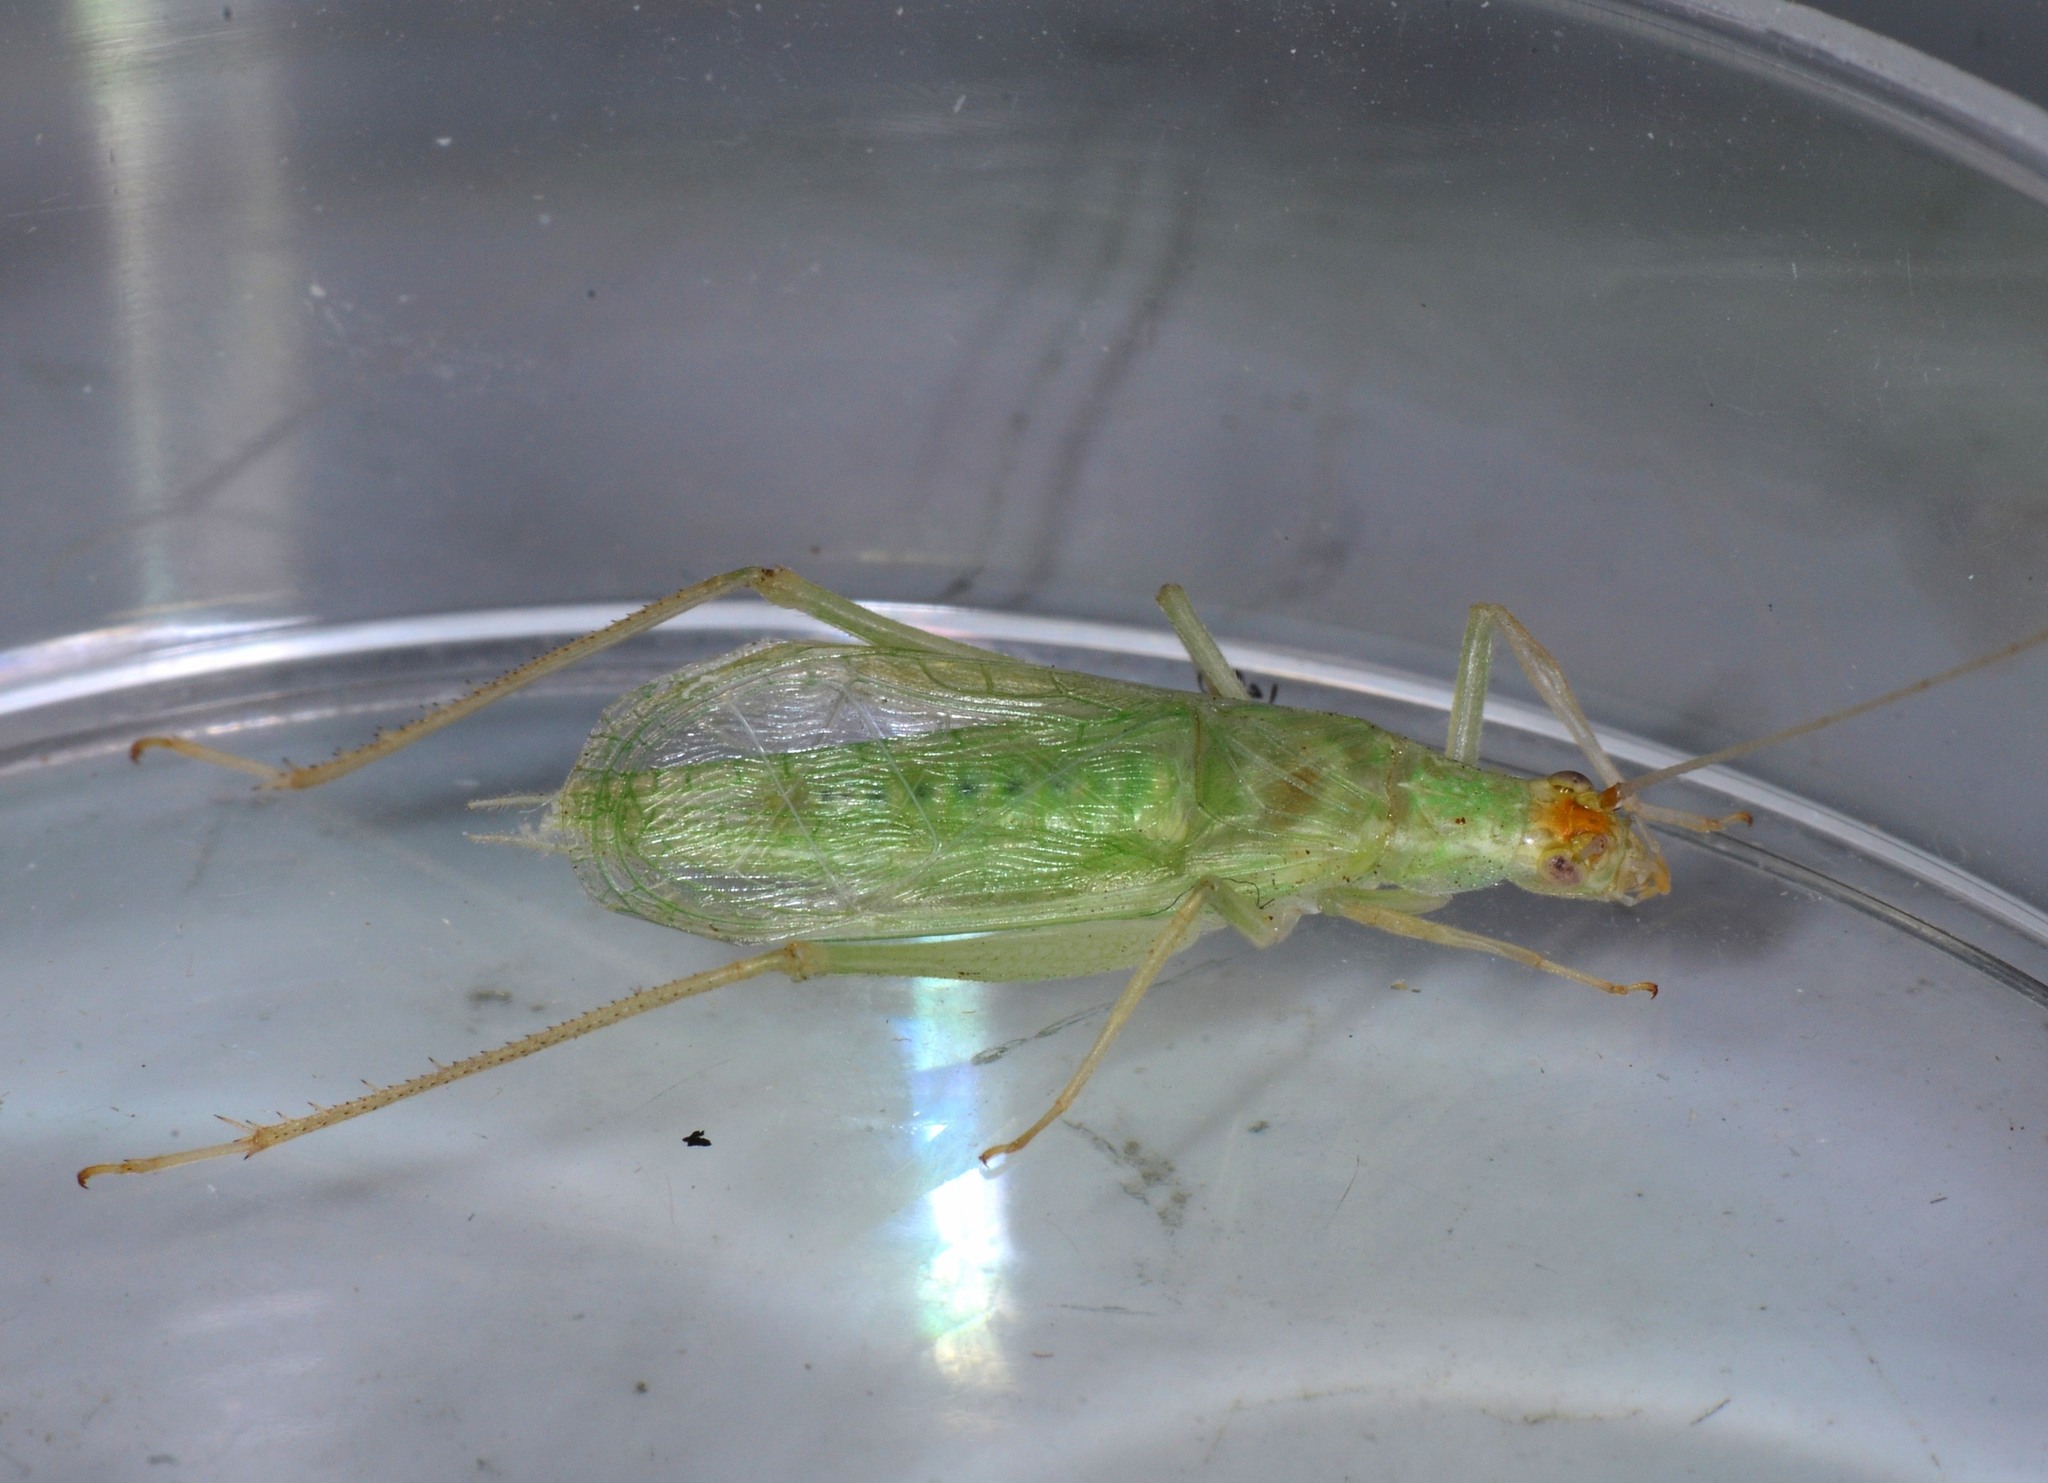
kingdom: Animalia
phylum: Arthropoda
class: Insecta
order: Orthoptera
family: Gryllidae
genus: Oecanthus
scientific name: Oecanthus fultoni
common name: Snowy tree cricket
